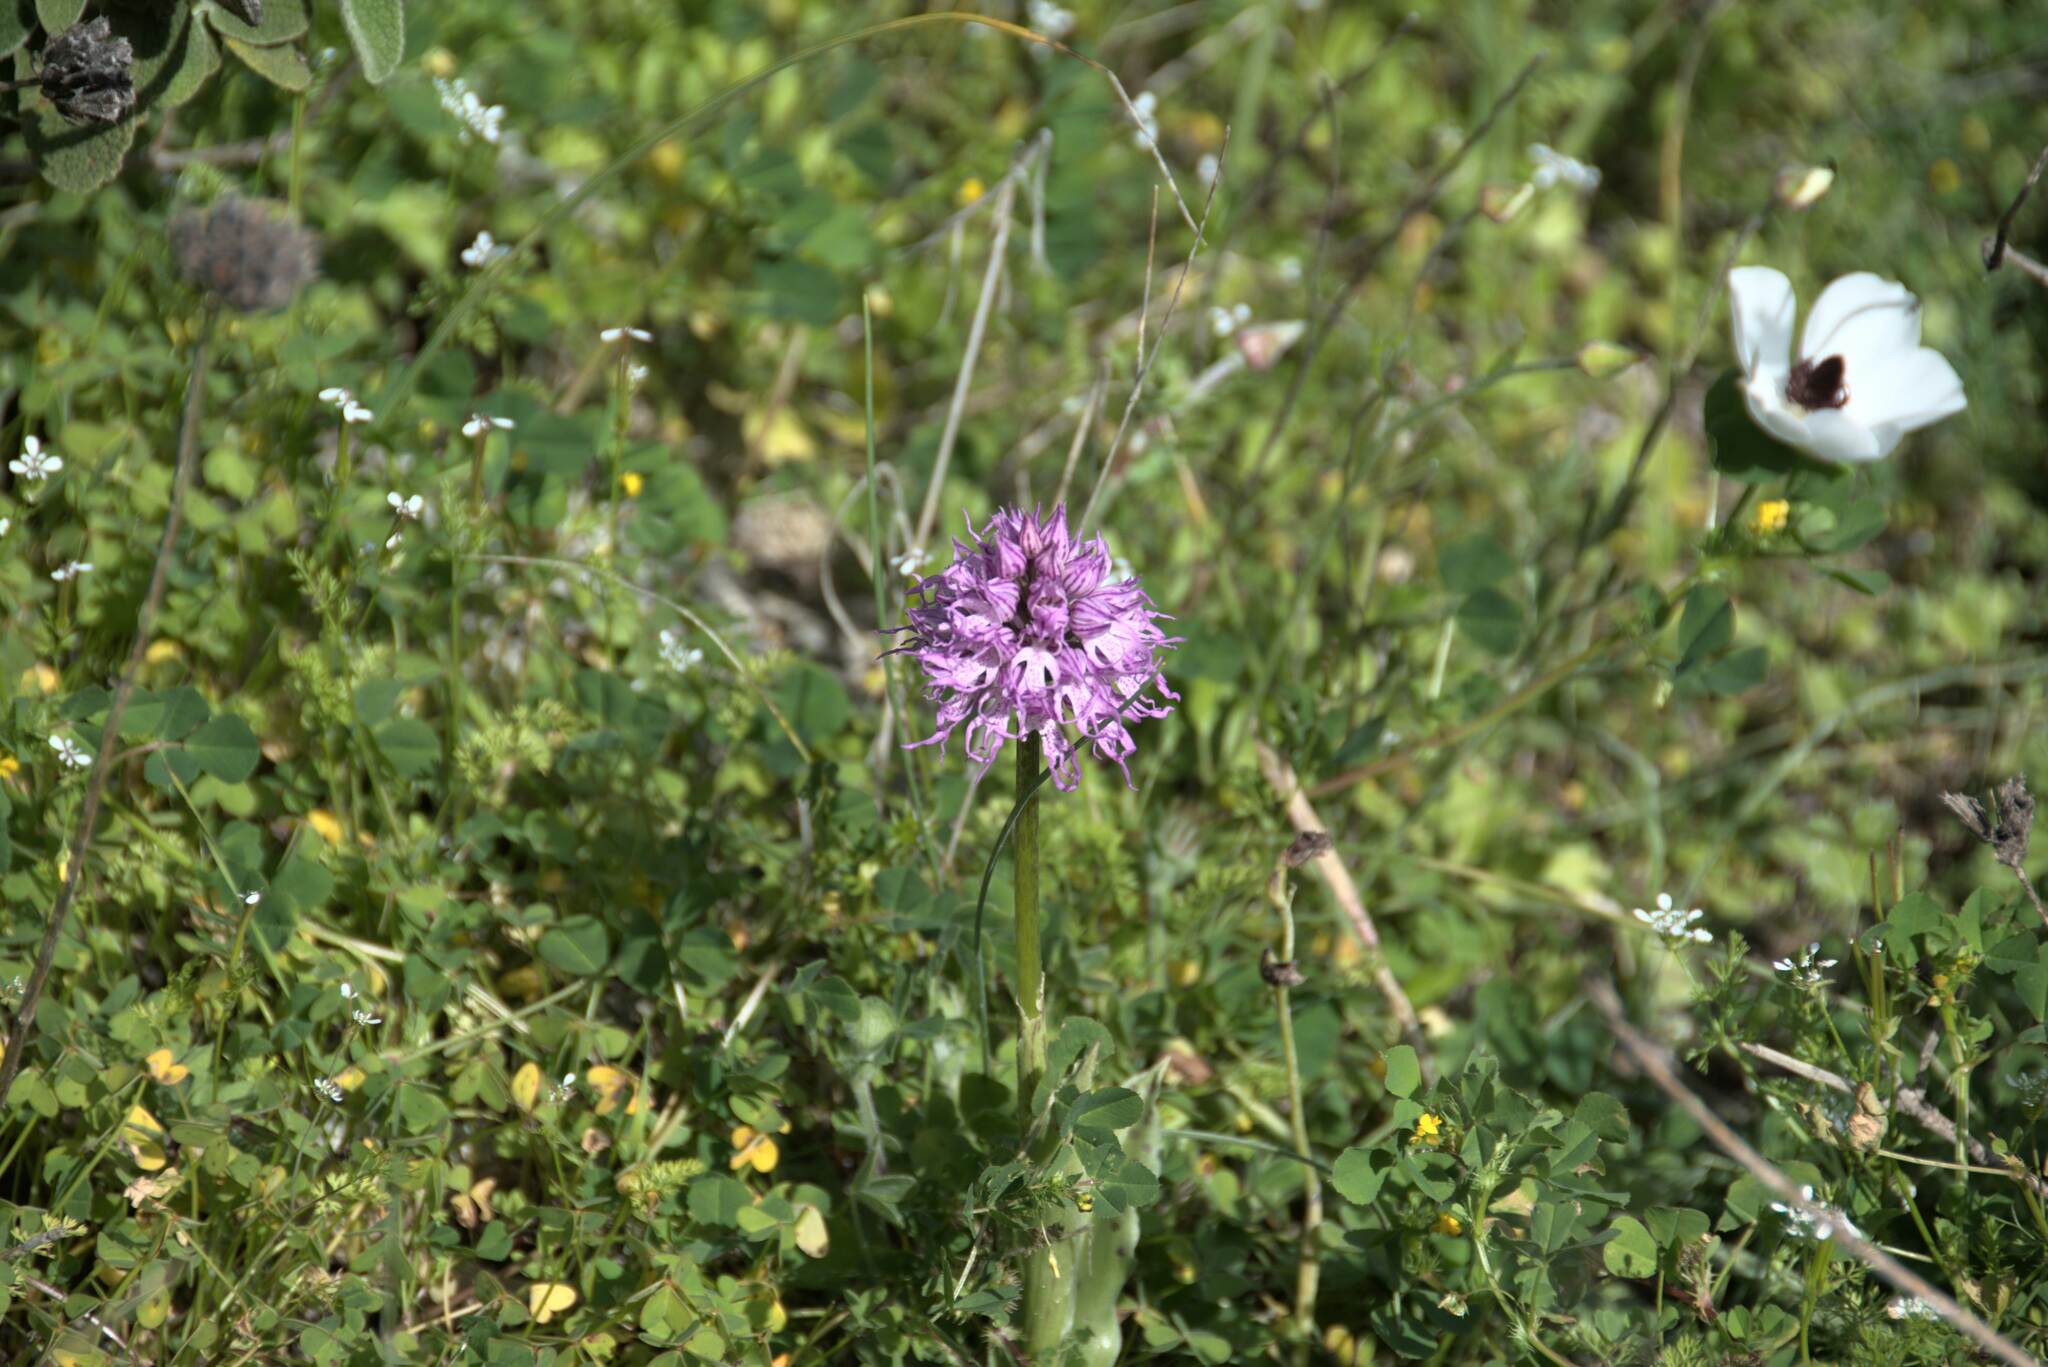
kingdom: Plantae
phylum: Tracheophyta
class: Liliopsida
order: Asparagales
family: Orchidaceae
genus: Orchis
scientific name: Orchis italica
